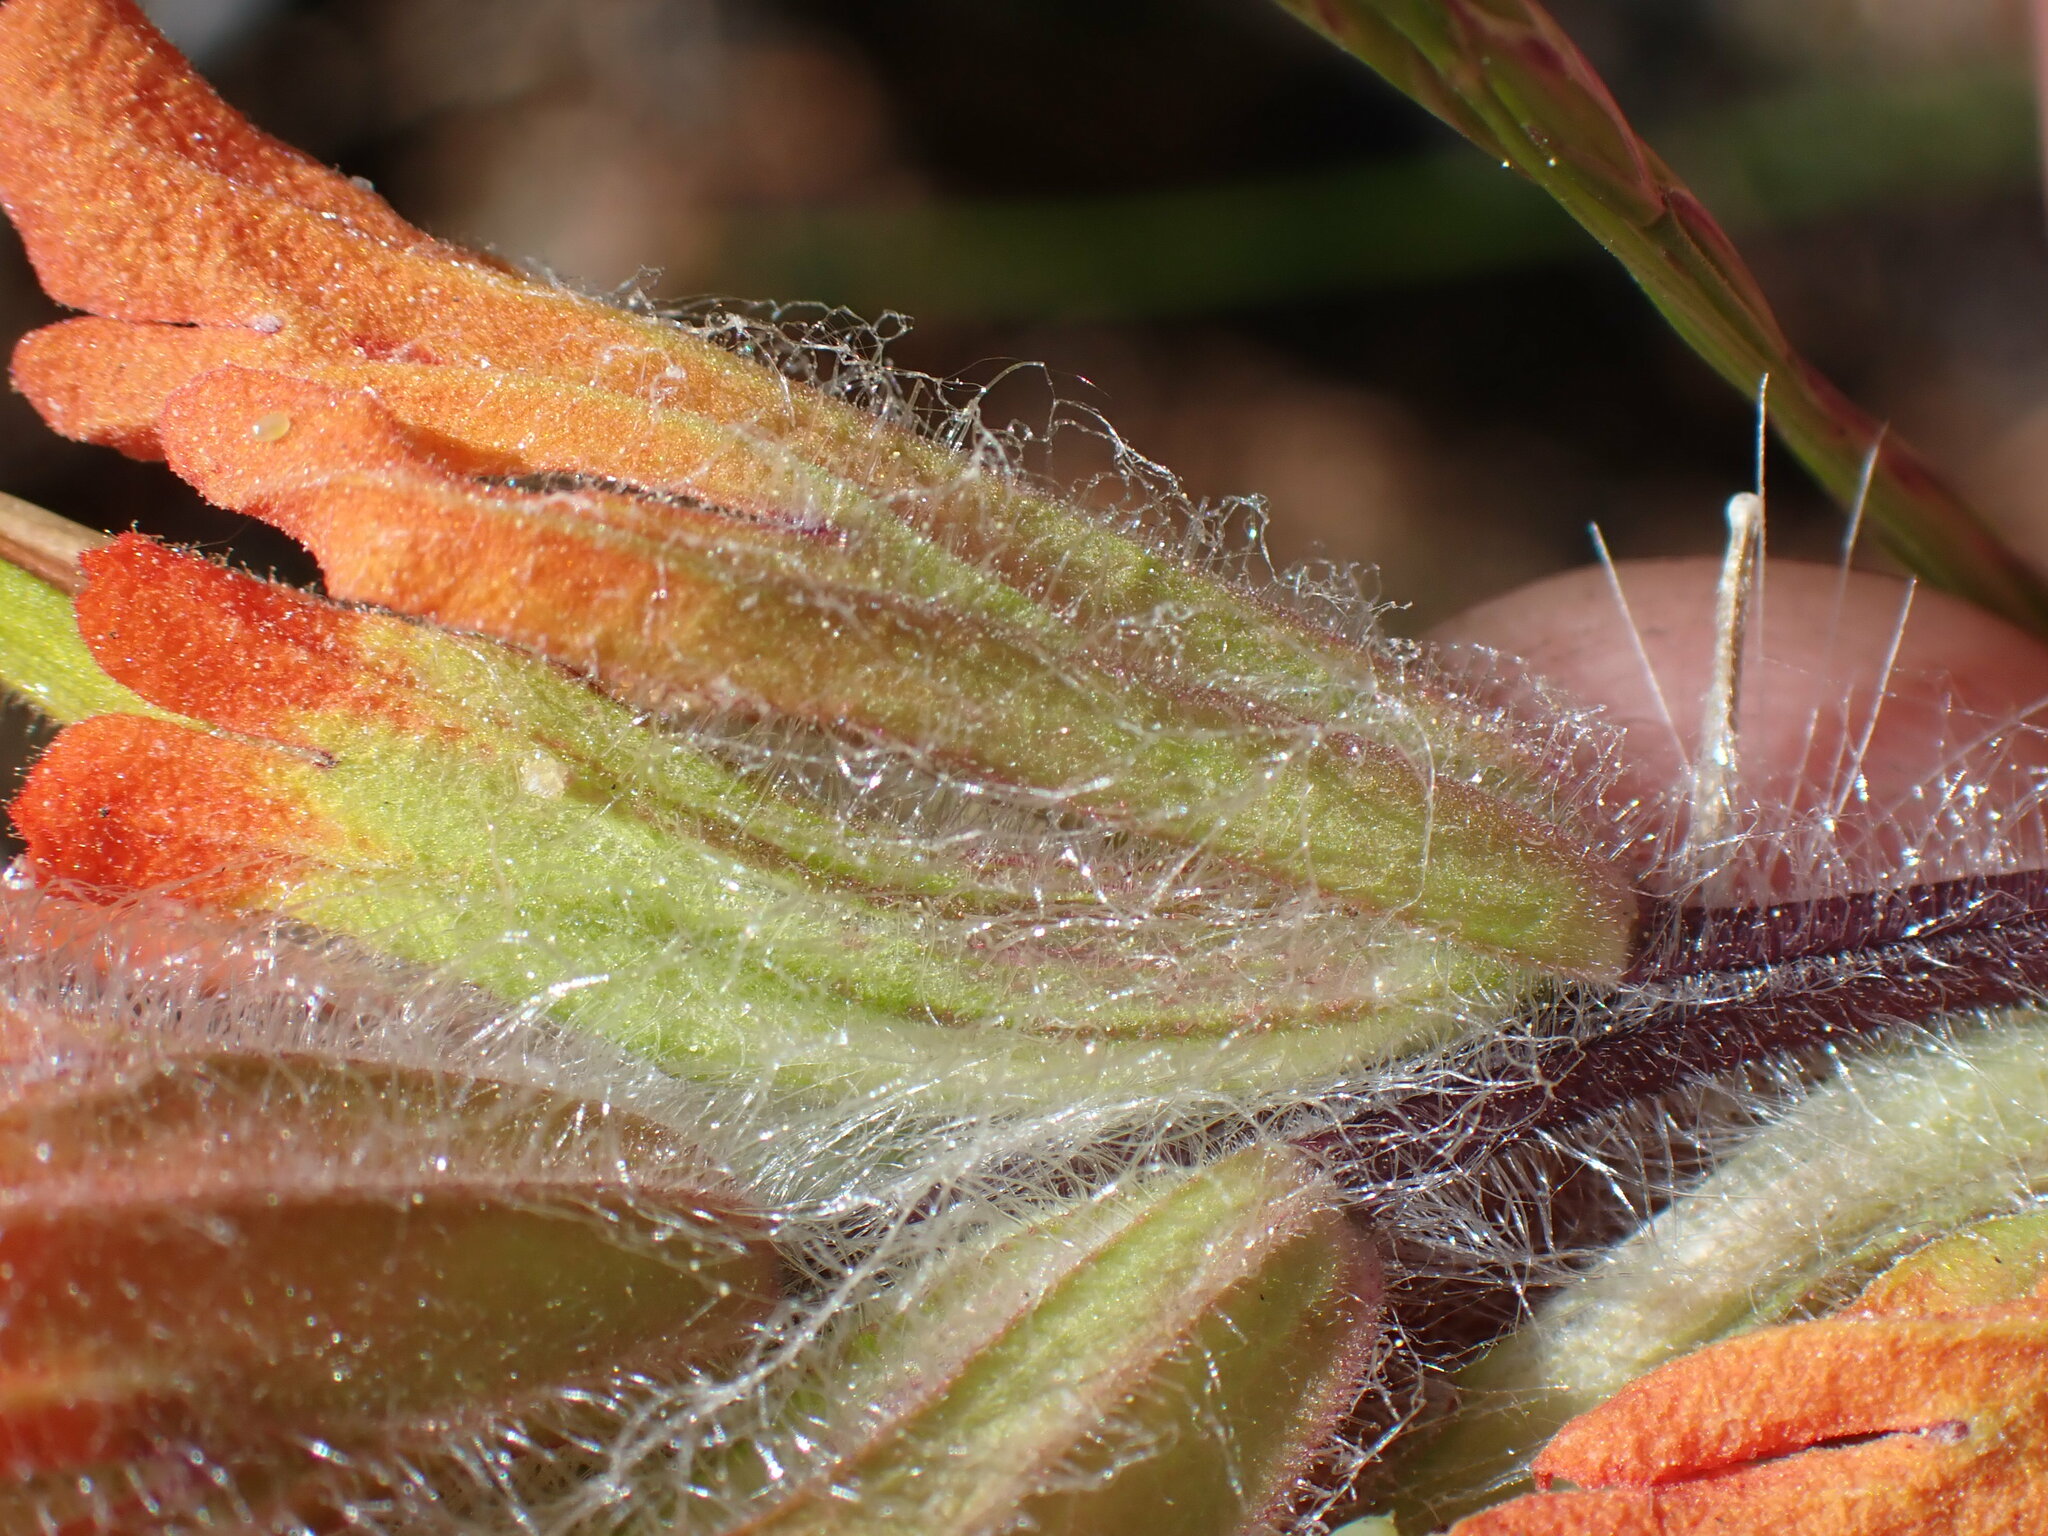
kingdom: Plantae
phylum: Tracheophyta
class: Magnoliopsida
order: Lamiales
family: Orobanchaceae
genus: Castilleja
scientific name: Castilleja hispida
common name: Bristly paintbrush
